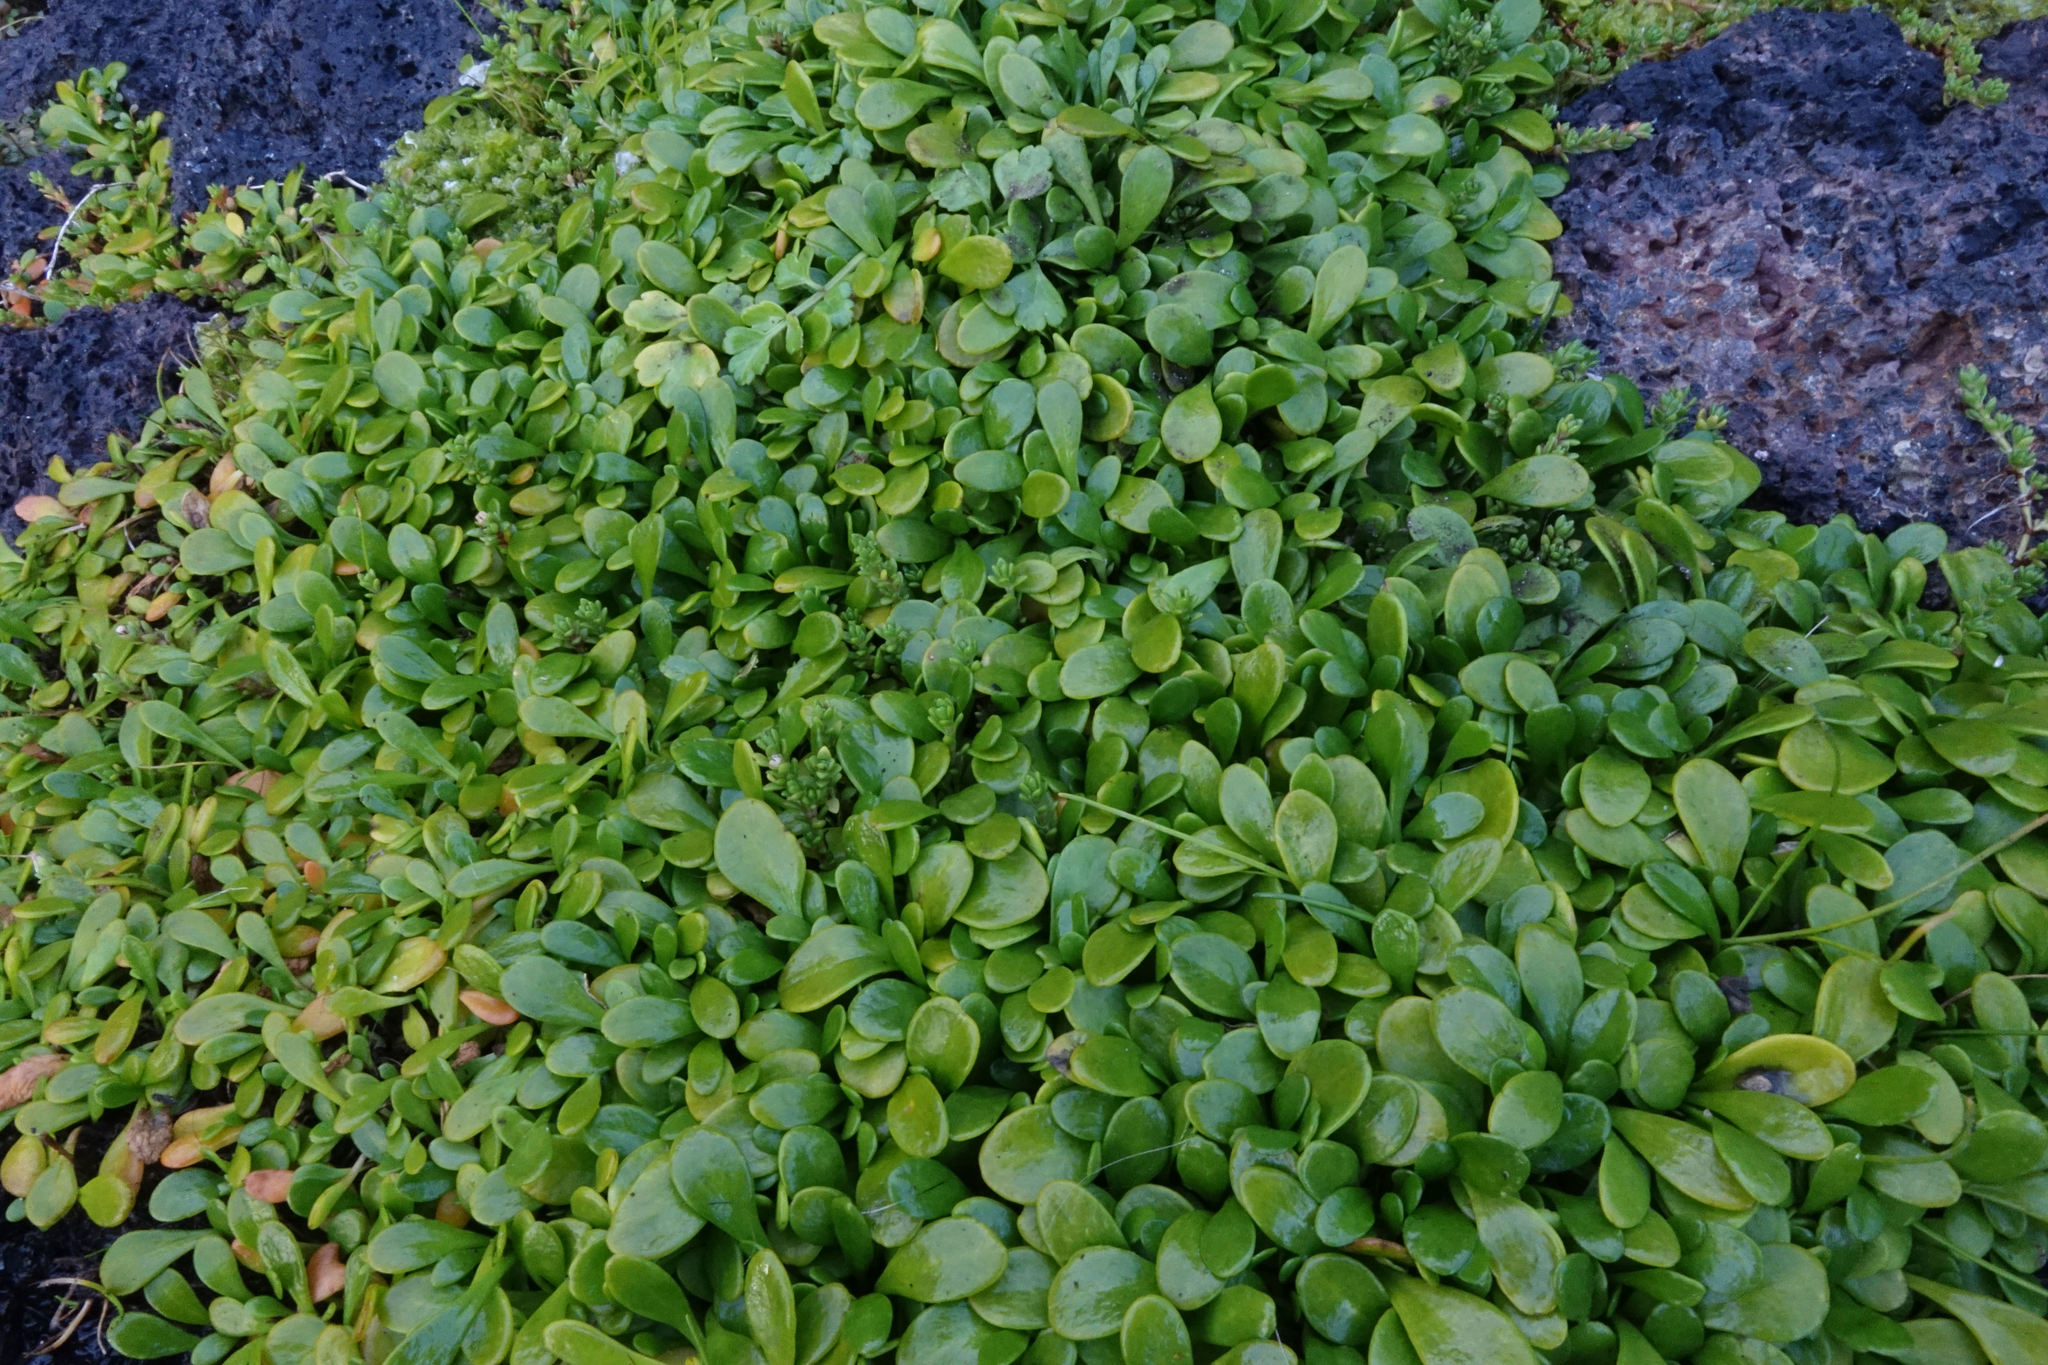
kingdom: Plantae
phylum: Tracheophyta
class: Magnoliopsida
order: Asterales
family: Goodeniaceae
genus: Goodenia
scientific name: Goodenia radicans
